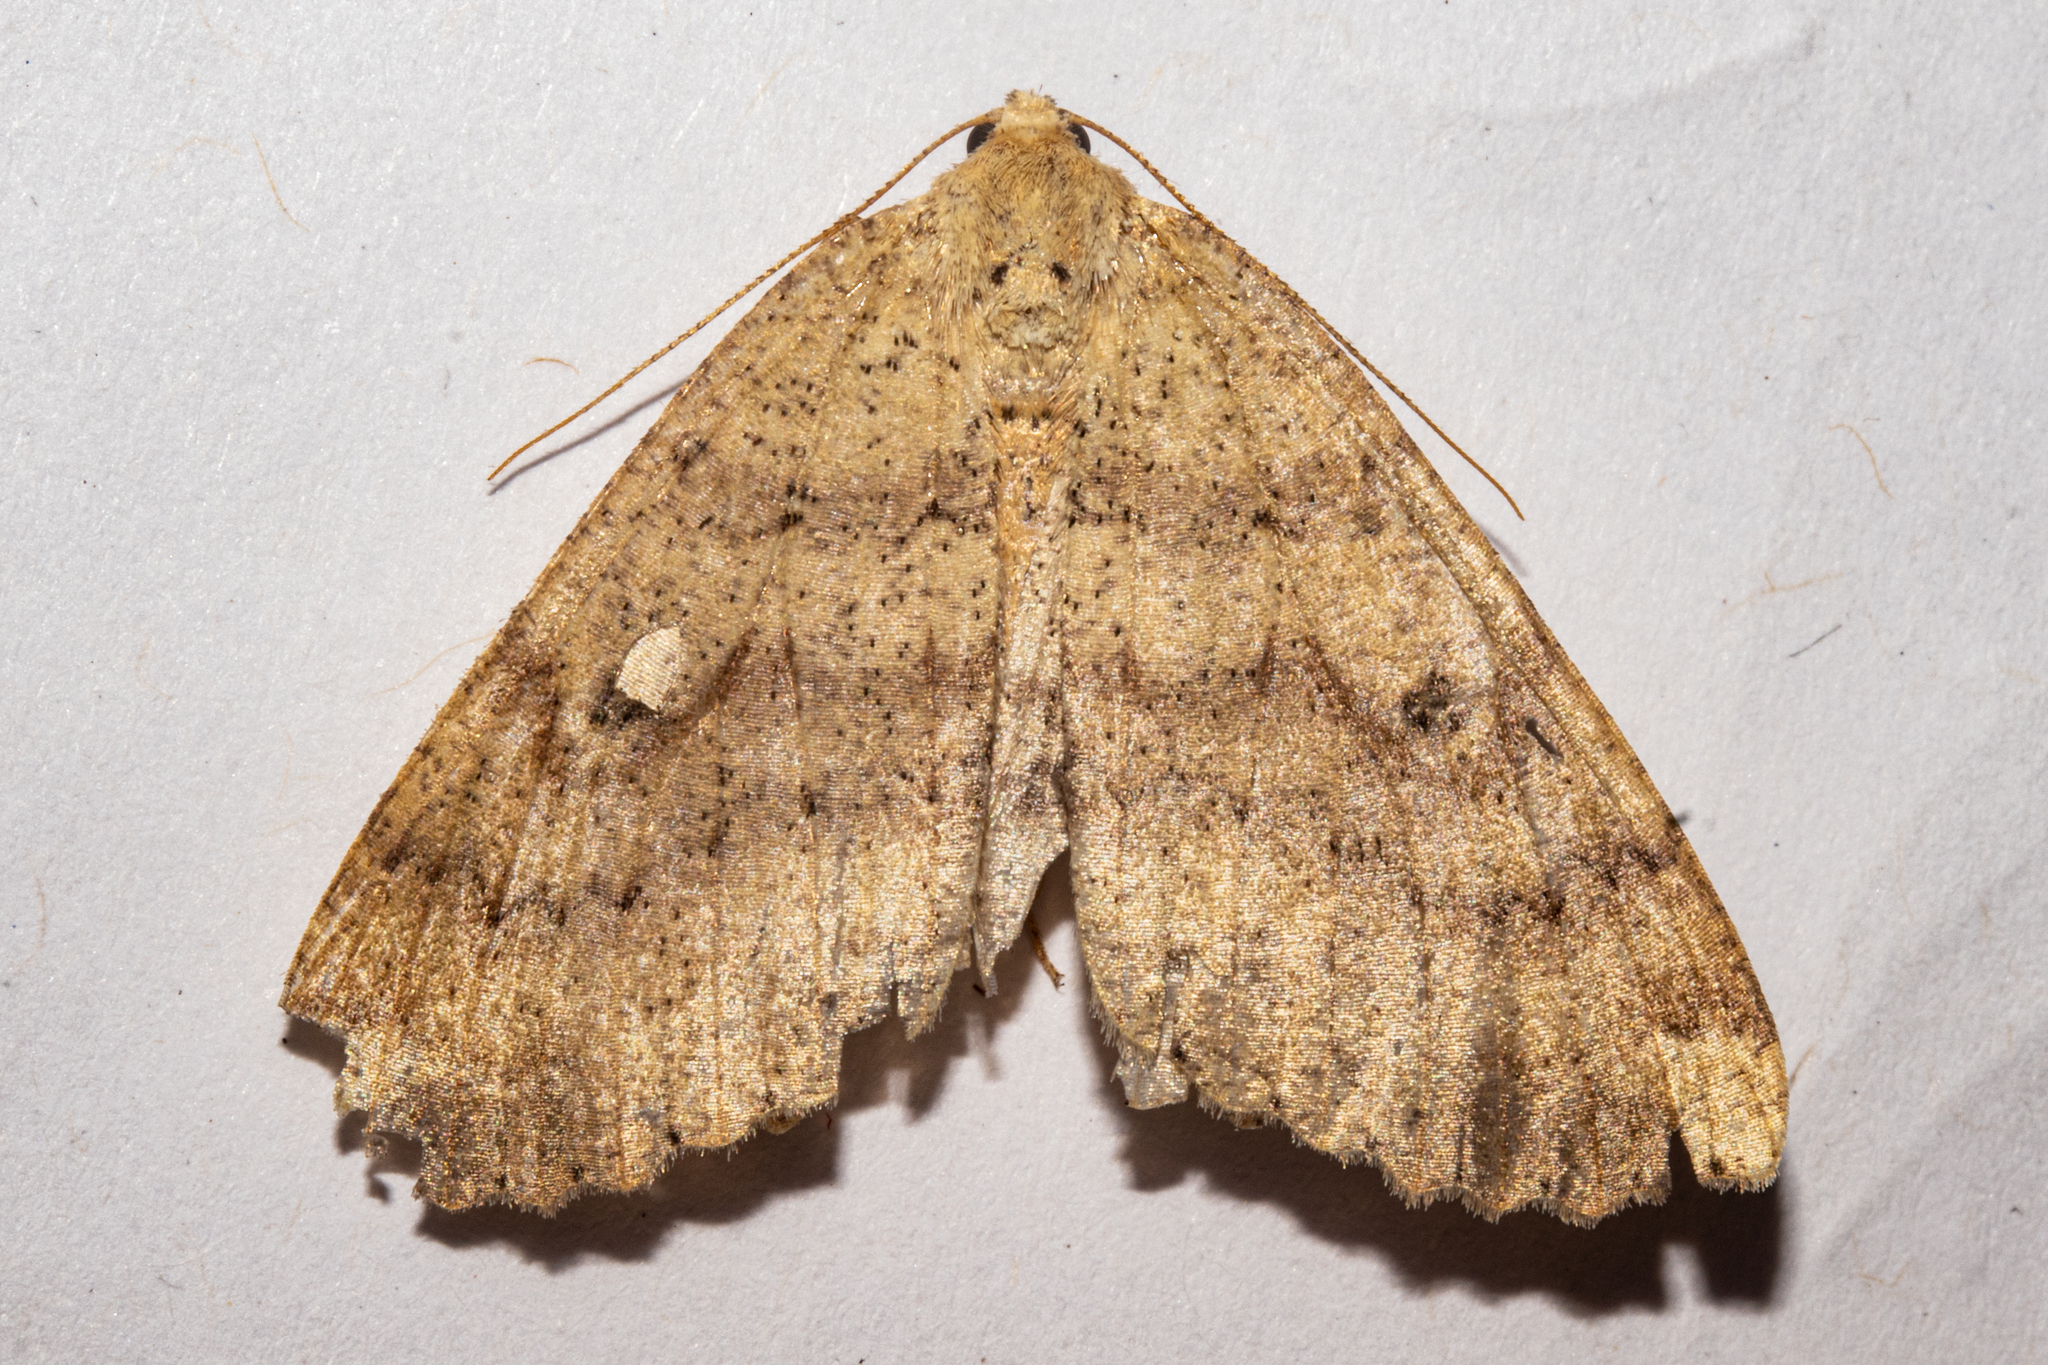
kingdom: Animalia
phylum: Arthropoda
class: Insecta
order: Lepidoptera
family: Geometridae
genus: Cleora
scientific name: Cleora scriptaria
